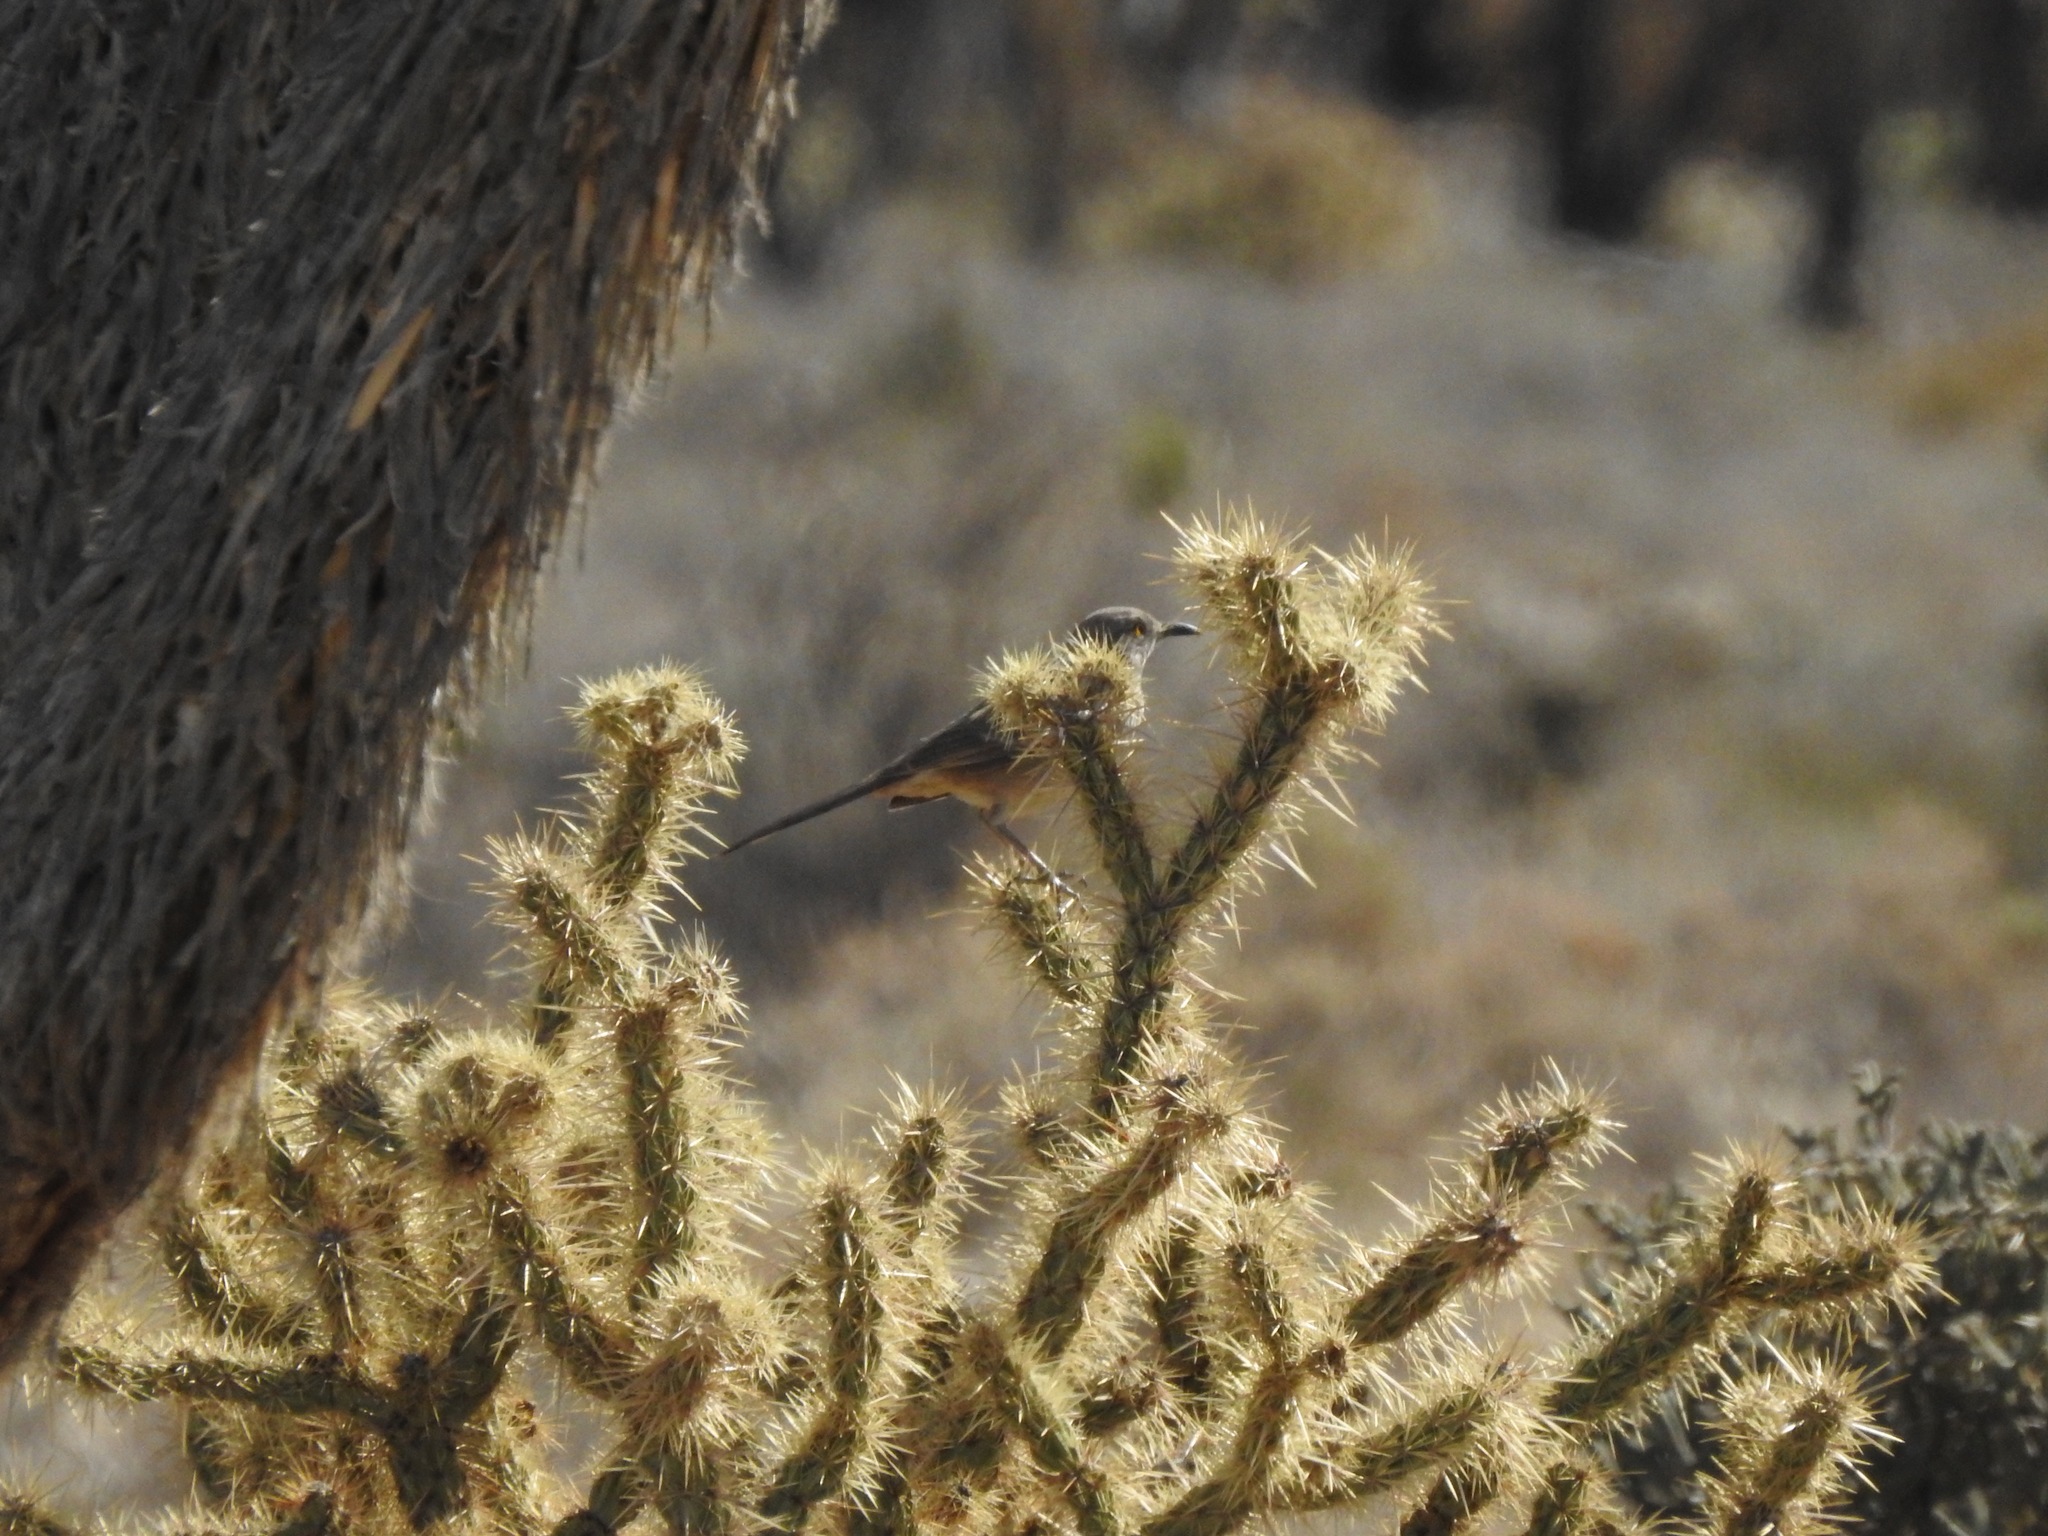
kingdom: Animalia
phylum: Chordata
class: Aves
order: Passeriformes
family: Mimidae
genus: Toxostoma
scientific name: Toxostoma bendirei
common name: Bendire's thrasher
